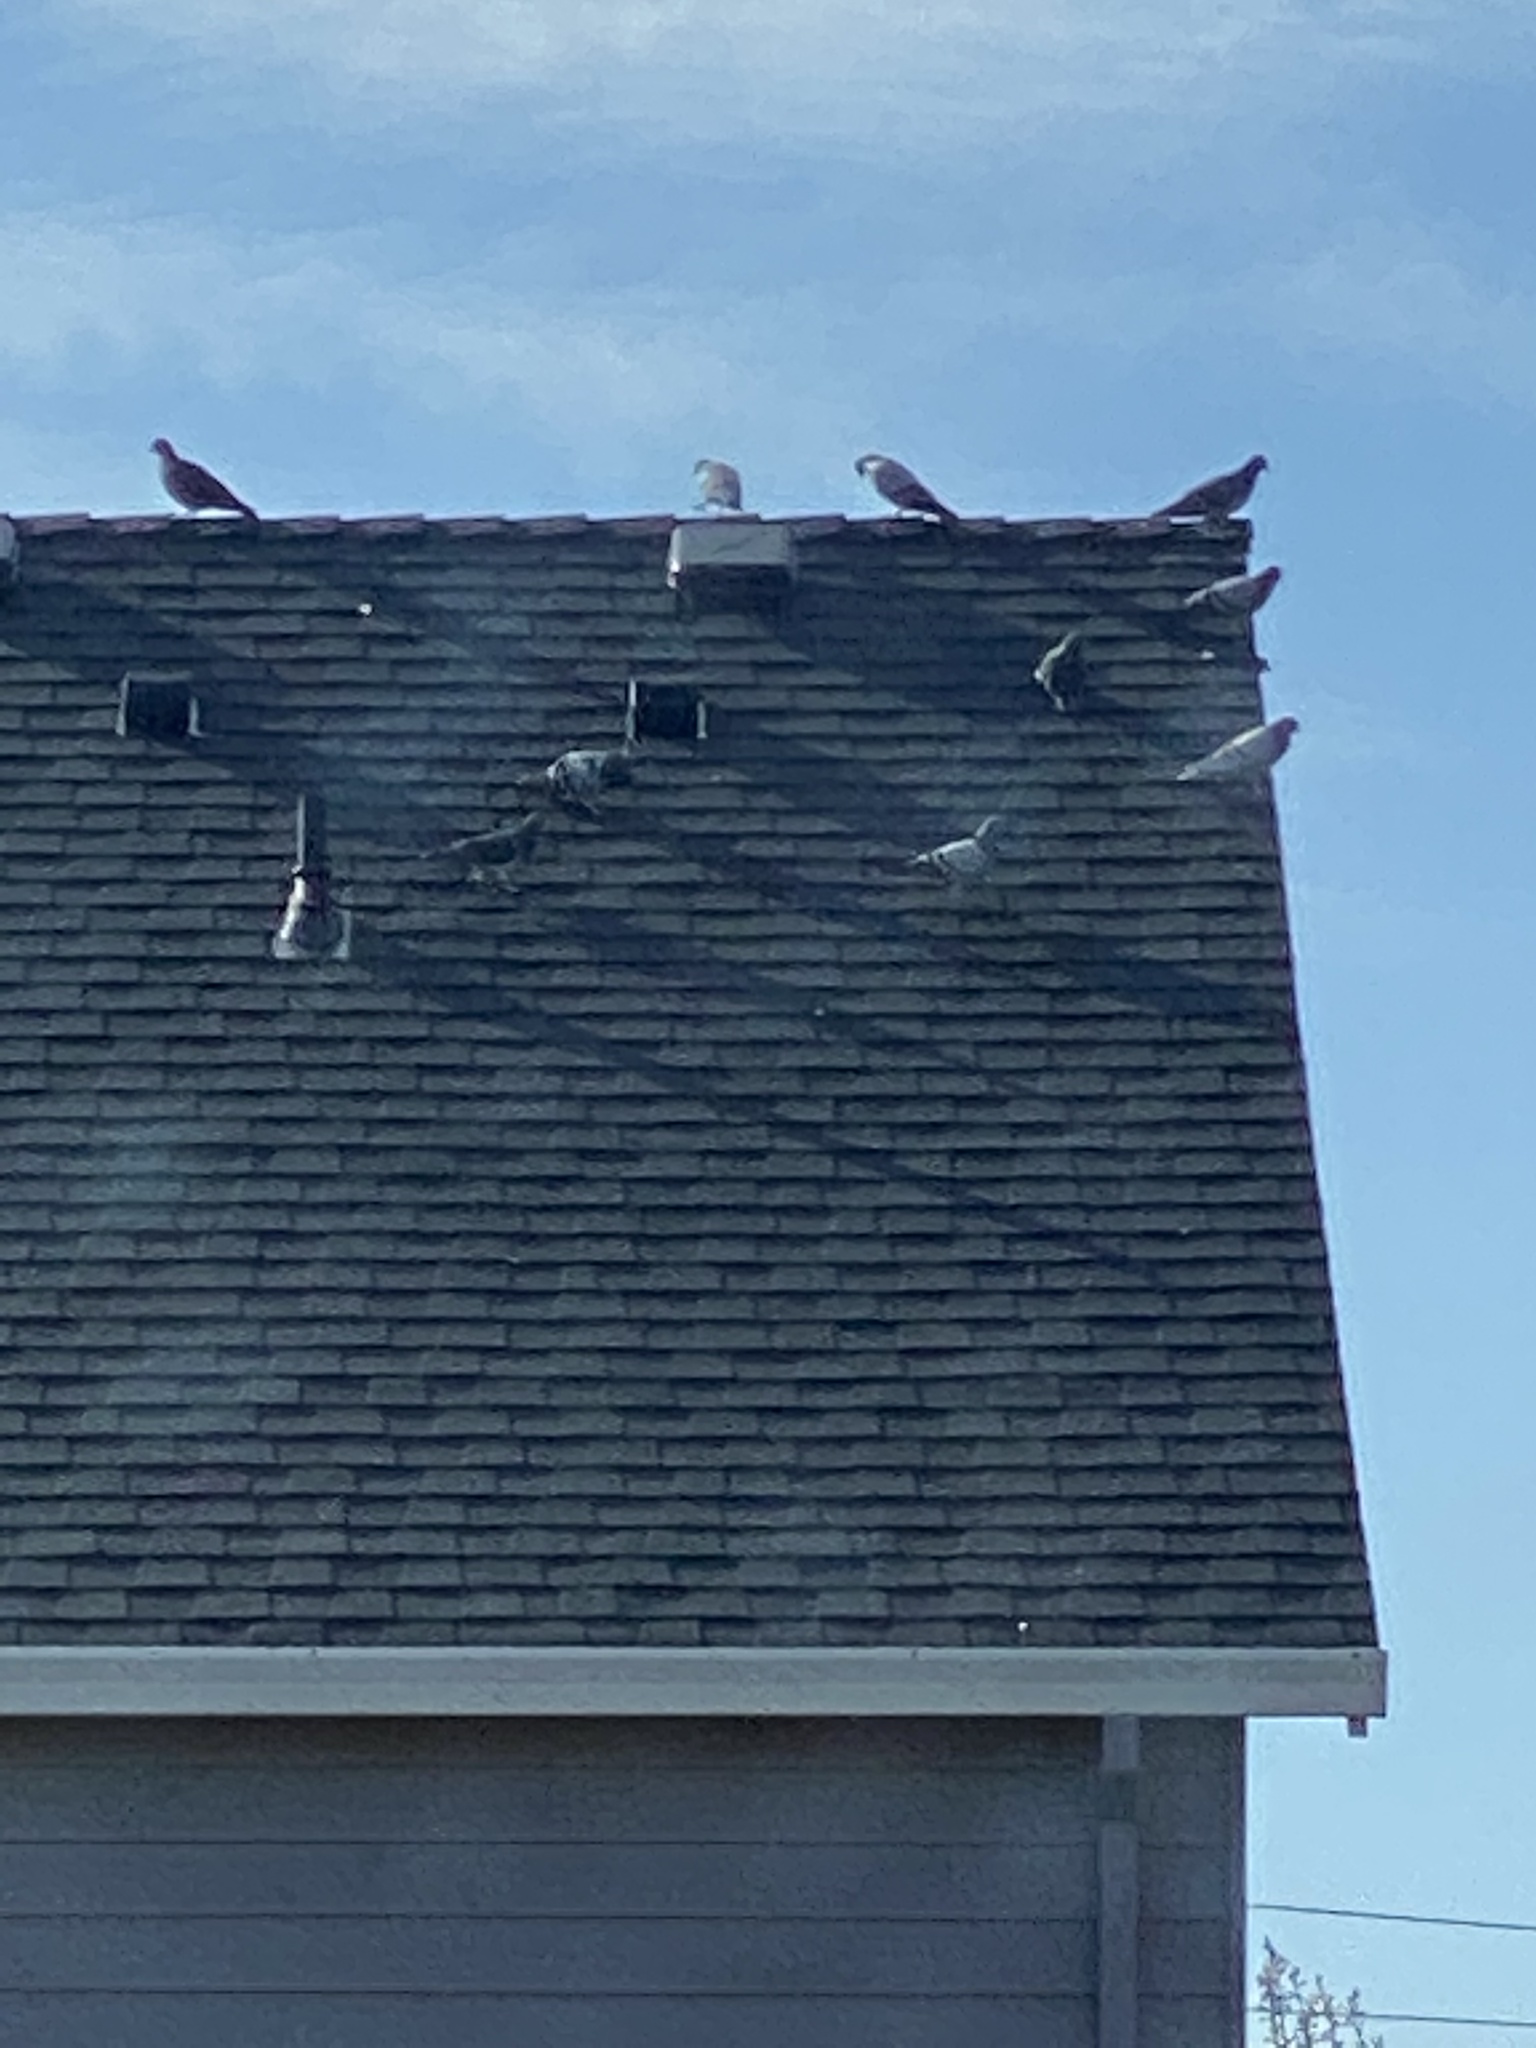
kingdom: Animalia
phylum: Chordata
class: Aves
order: Columbiformes
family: Columbidae
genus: Columba
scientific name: Columba livia
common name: Rock pigeon
